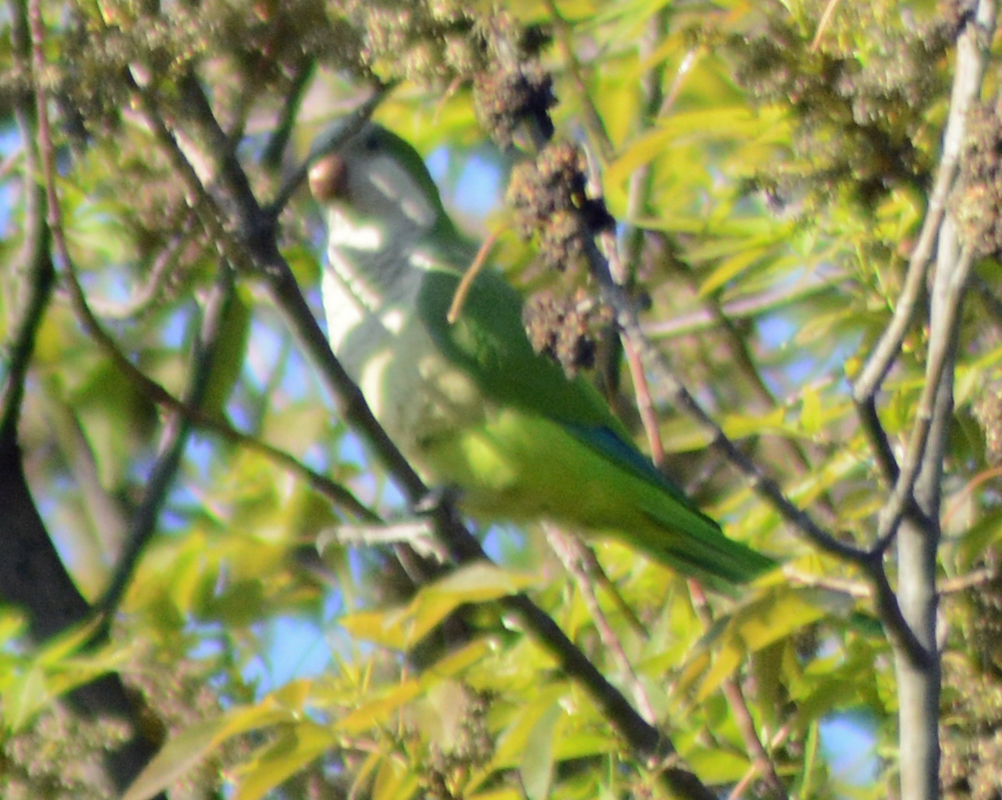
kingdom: Animalia
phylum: Chordata
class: Aves
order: Psittaciformes
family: Psittacidae
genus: Myiopsitta
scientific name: Myiopsitta monachus
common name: Monk parakeet
